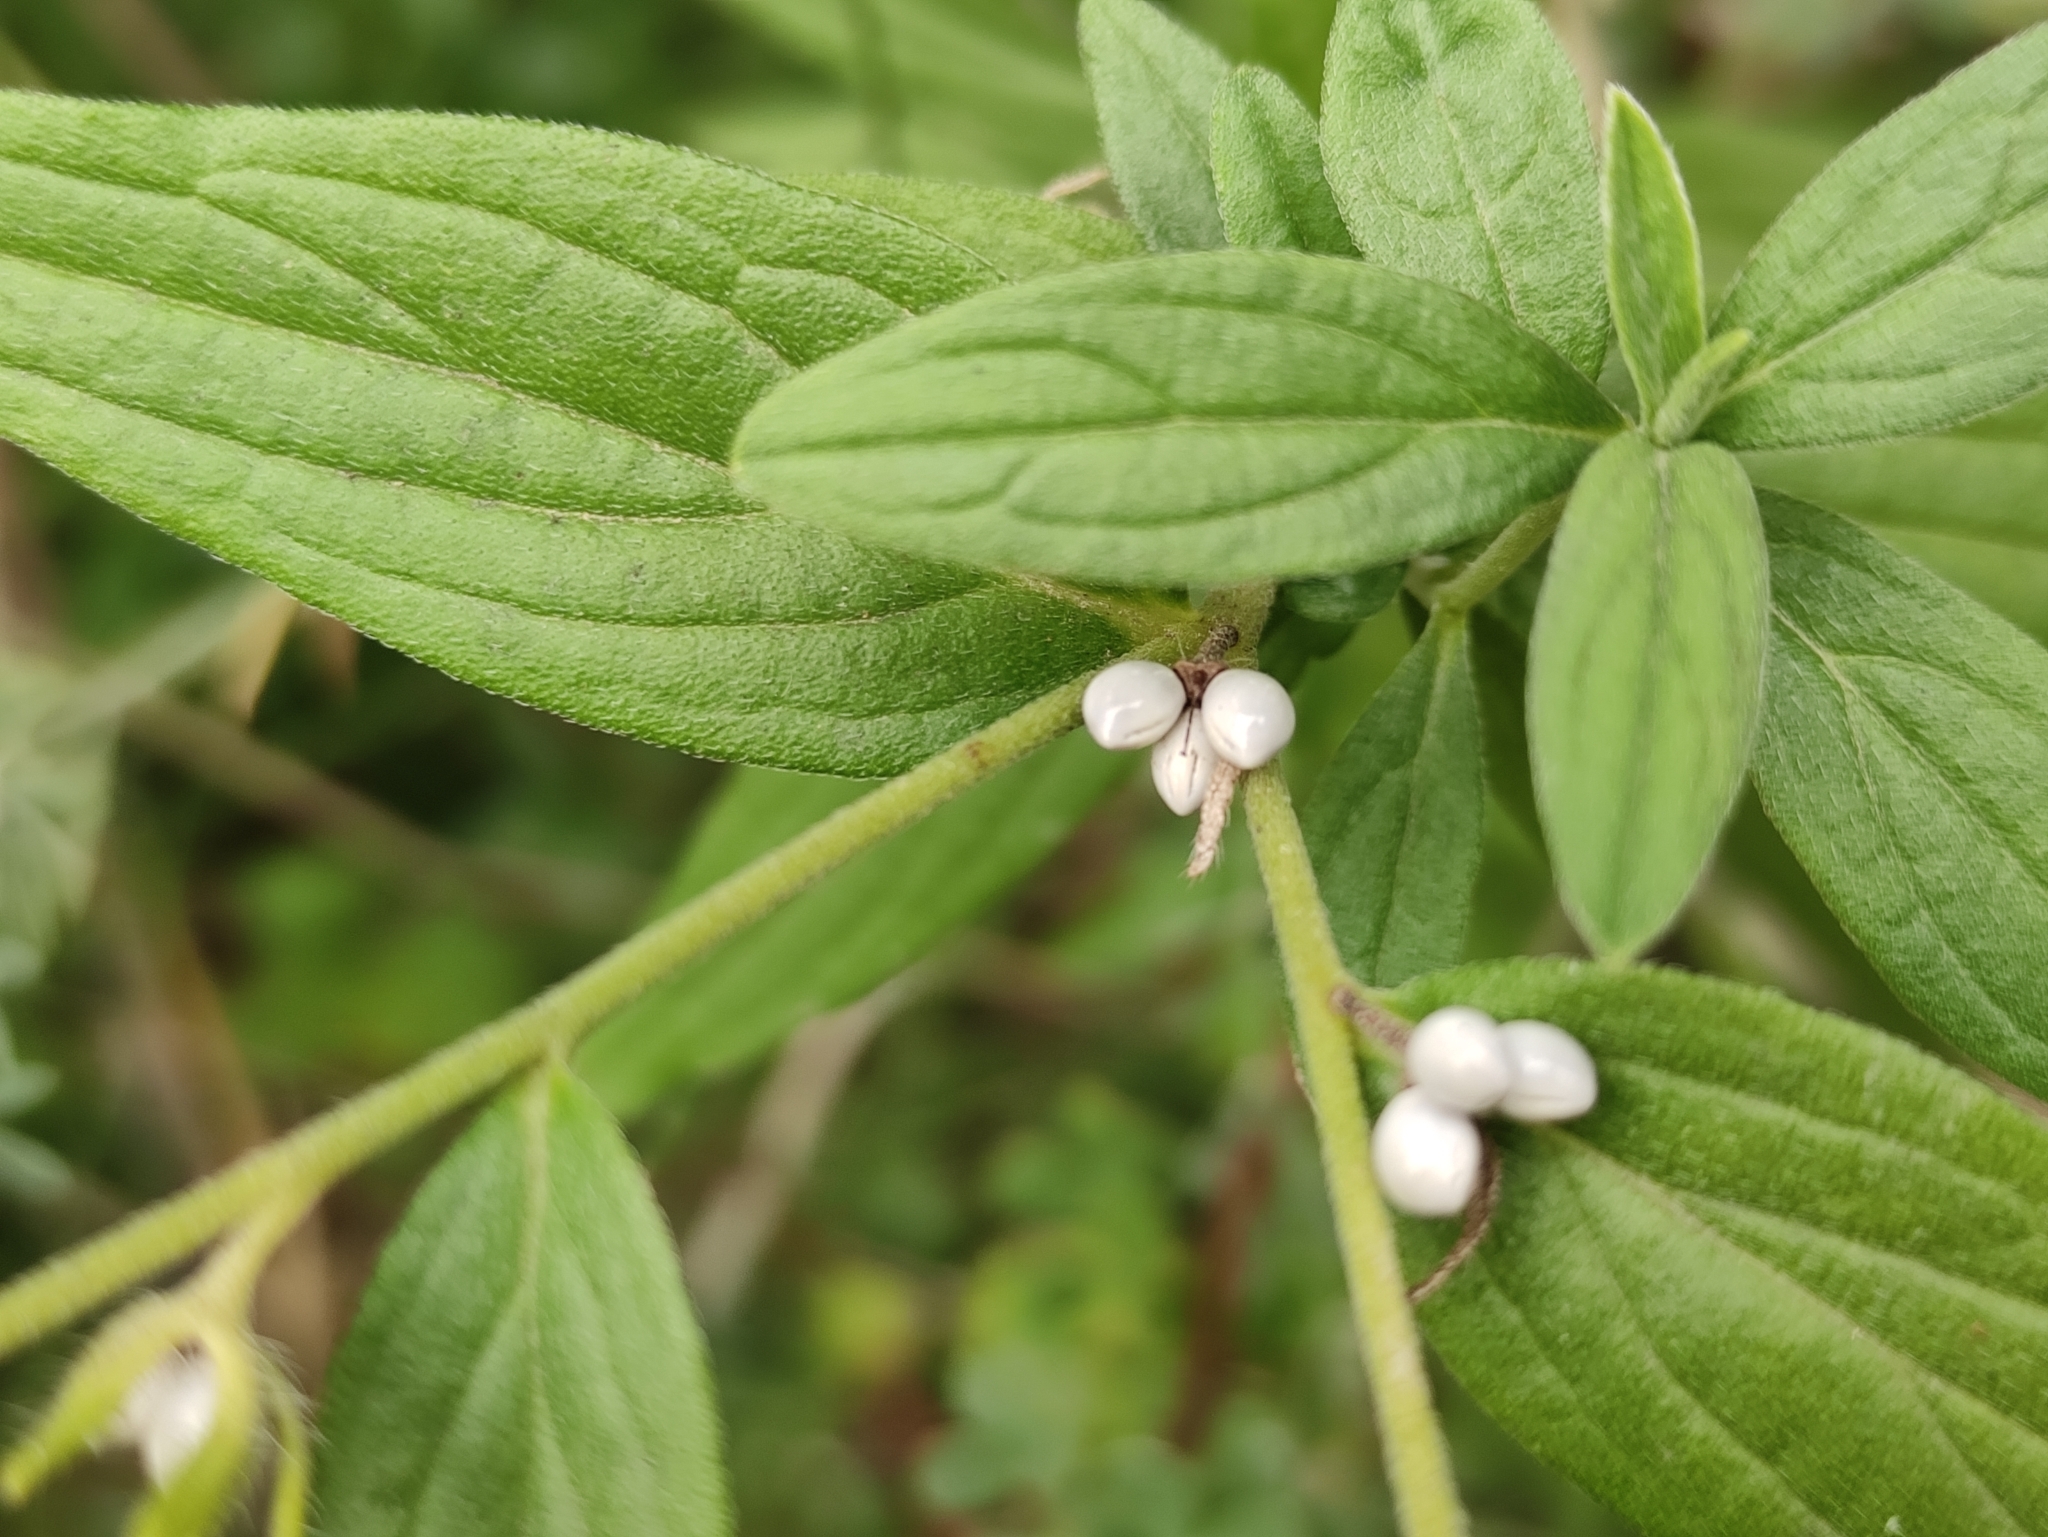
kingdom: Plantae
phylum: Tracheophyta
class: Magnoliopsida
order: Boraginales
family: Boraginaceae
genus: Lithospermum
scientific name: Lithospermum officinale
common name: Common gromwell
